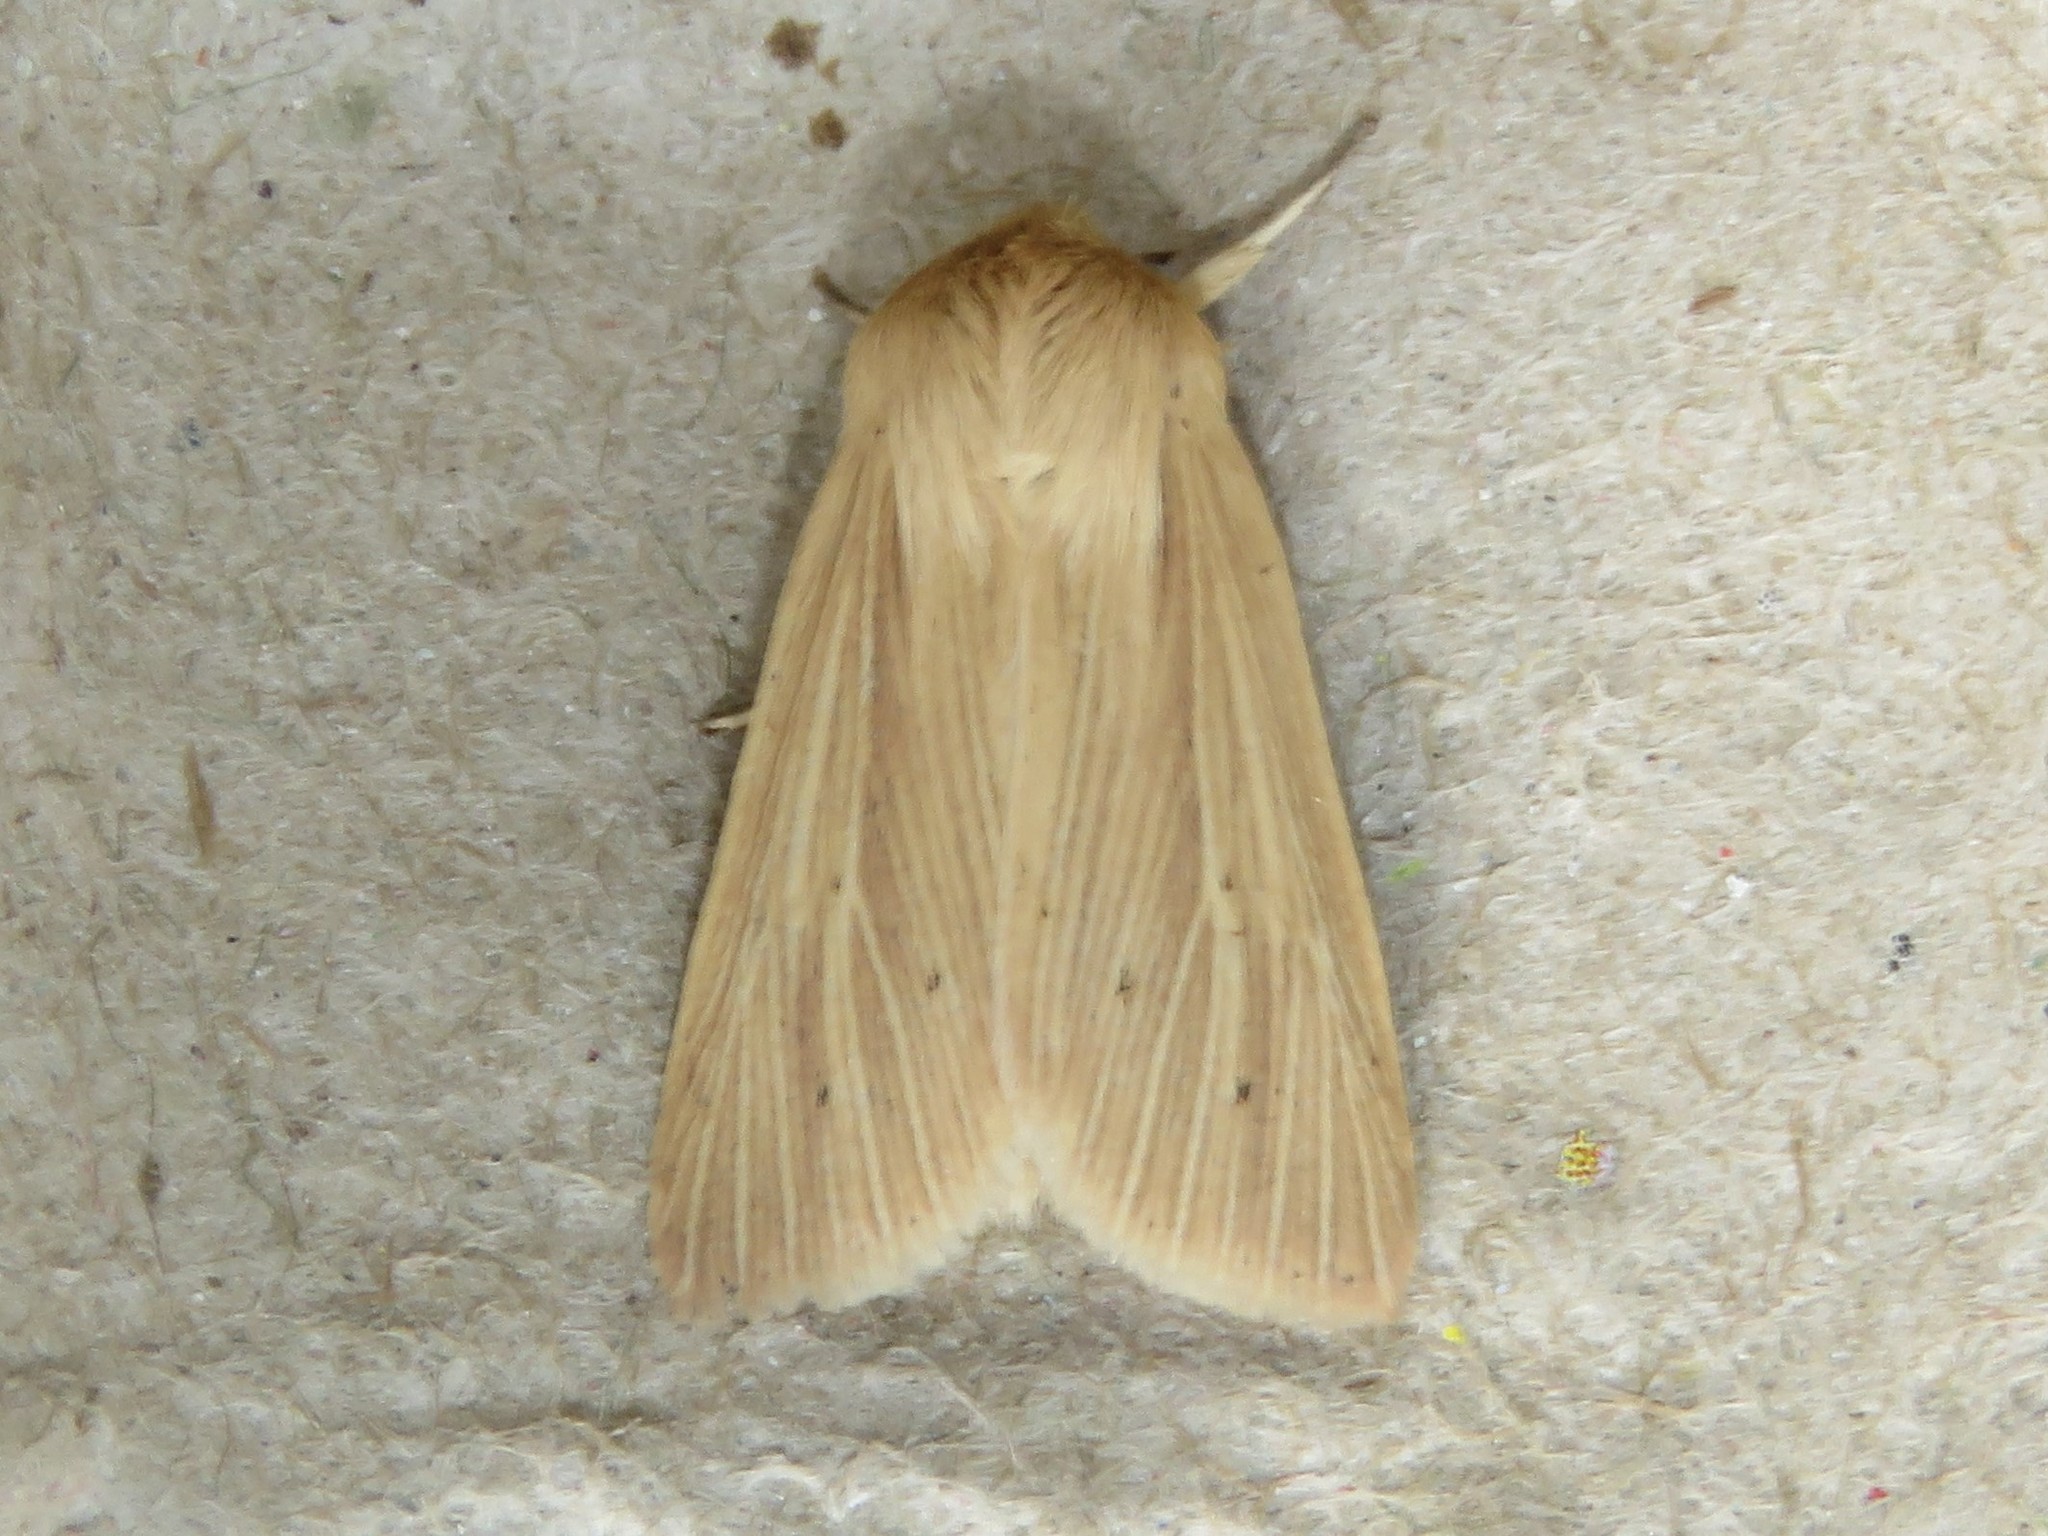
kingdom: Animalia
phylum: Arthropoda
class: Insecta
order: Lepidoptera
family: Noctuidae
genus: Mythimna
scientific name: Mythimna oxygala
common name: Lesser wainscot
